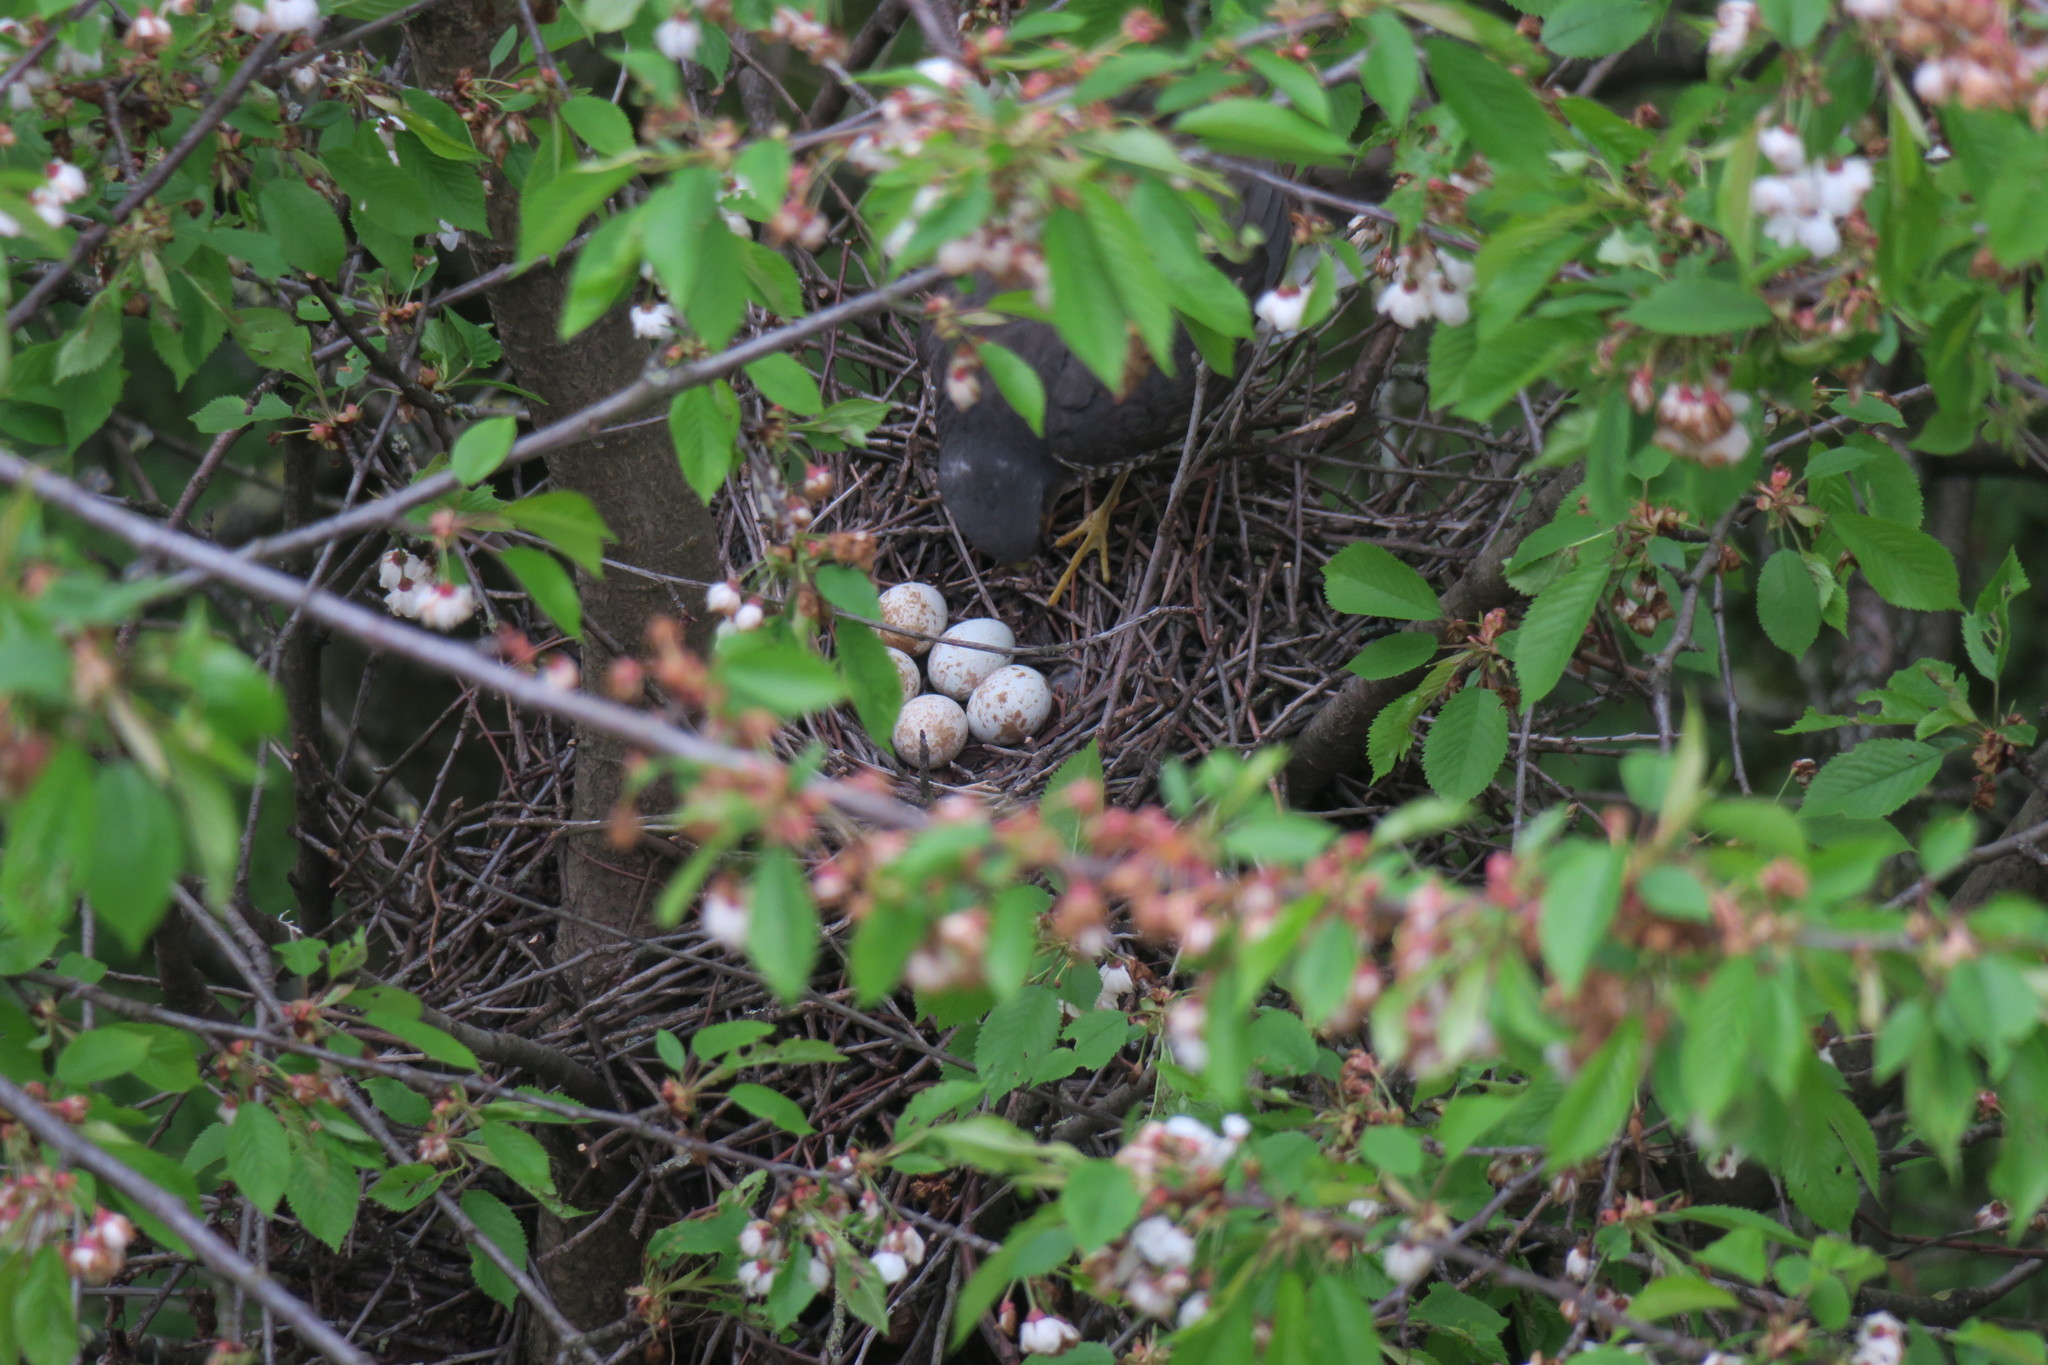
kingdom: Animalia
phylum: Chordata
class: Aves
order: Accipitriformes
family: Accipitridae
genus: Accipiter
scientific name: Accipiter nisus
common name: Eurasian sparrowhawk
